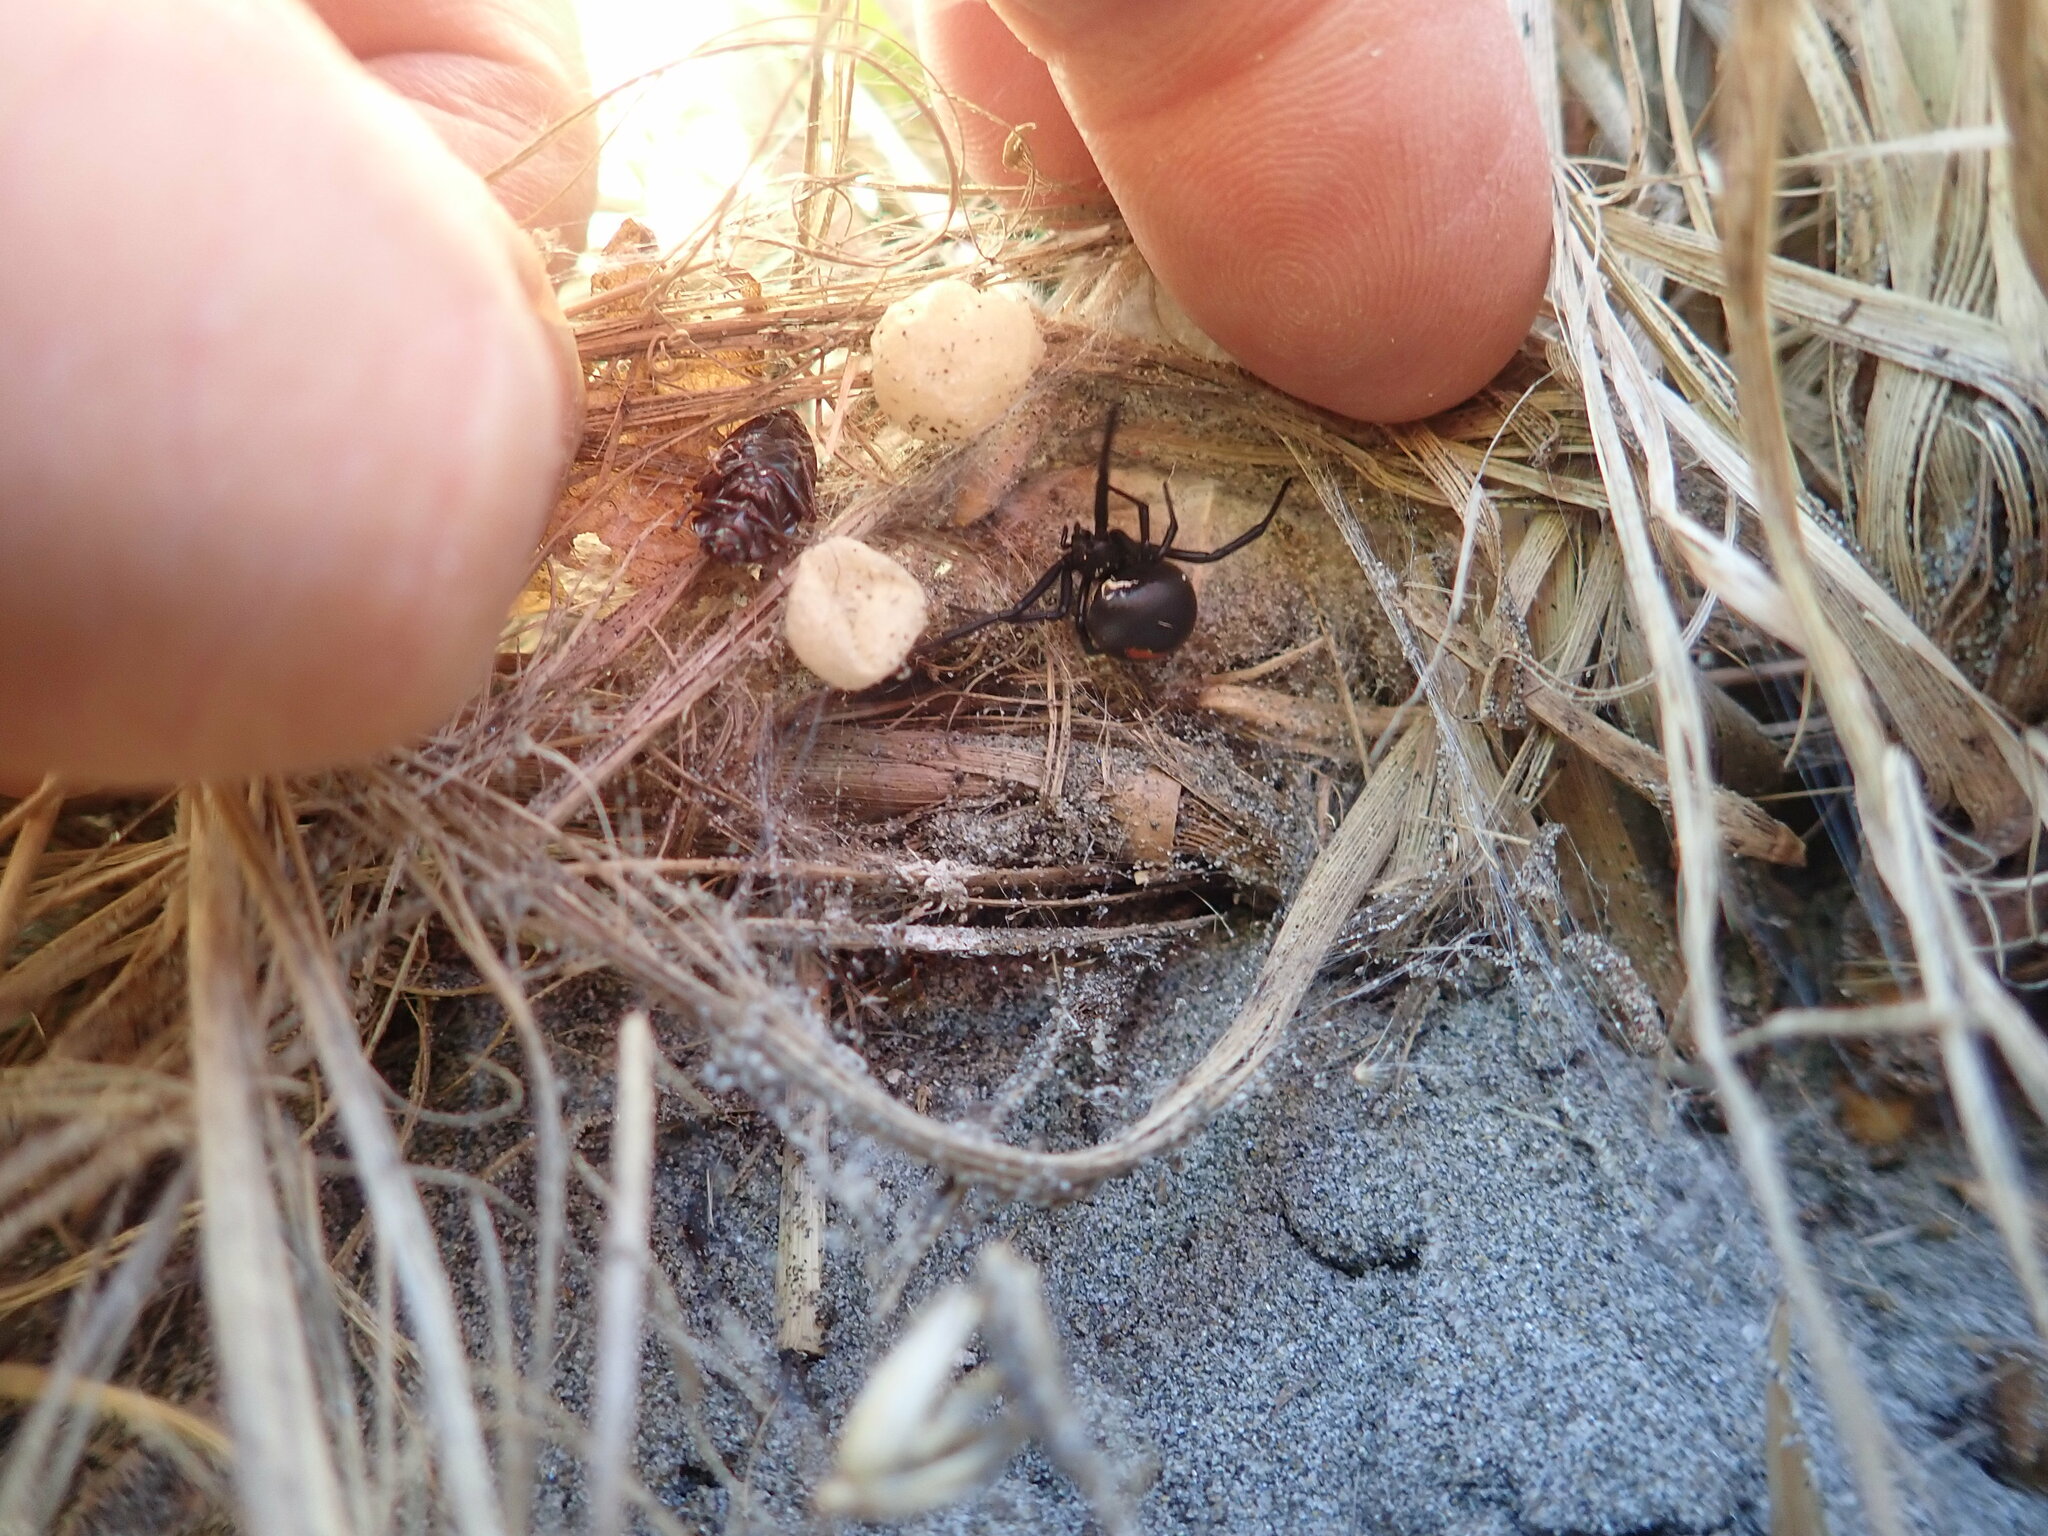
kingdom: Animalia
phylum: Arthropoda
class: Arachnida
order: Araneae
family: Theridiidae
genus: Latrodectus
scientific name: Latrodectus katipo
